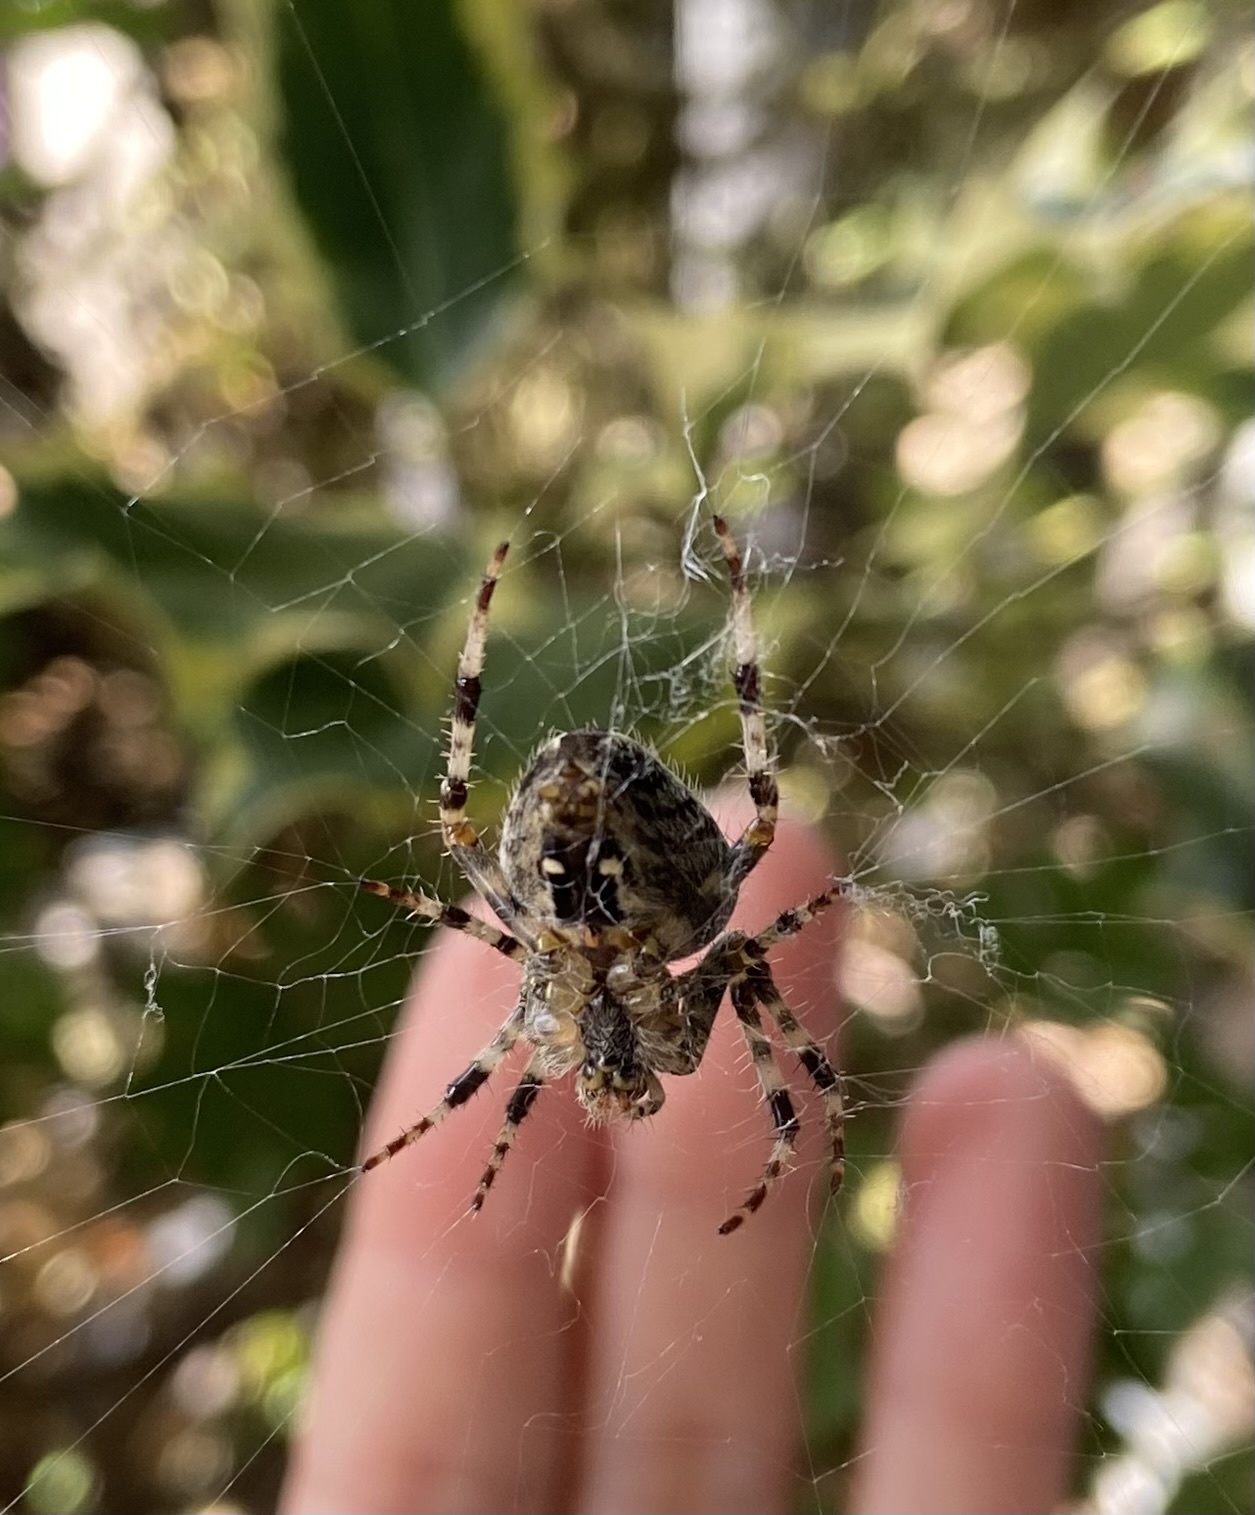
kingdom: Animalia
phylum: Arthropoda
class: Arachnida
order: Araneae
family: Araneidae
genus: Araneus
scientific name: Araneus diadematus
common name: Cross orbweaver
